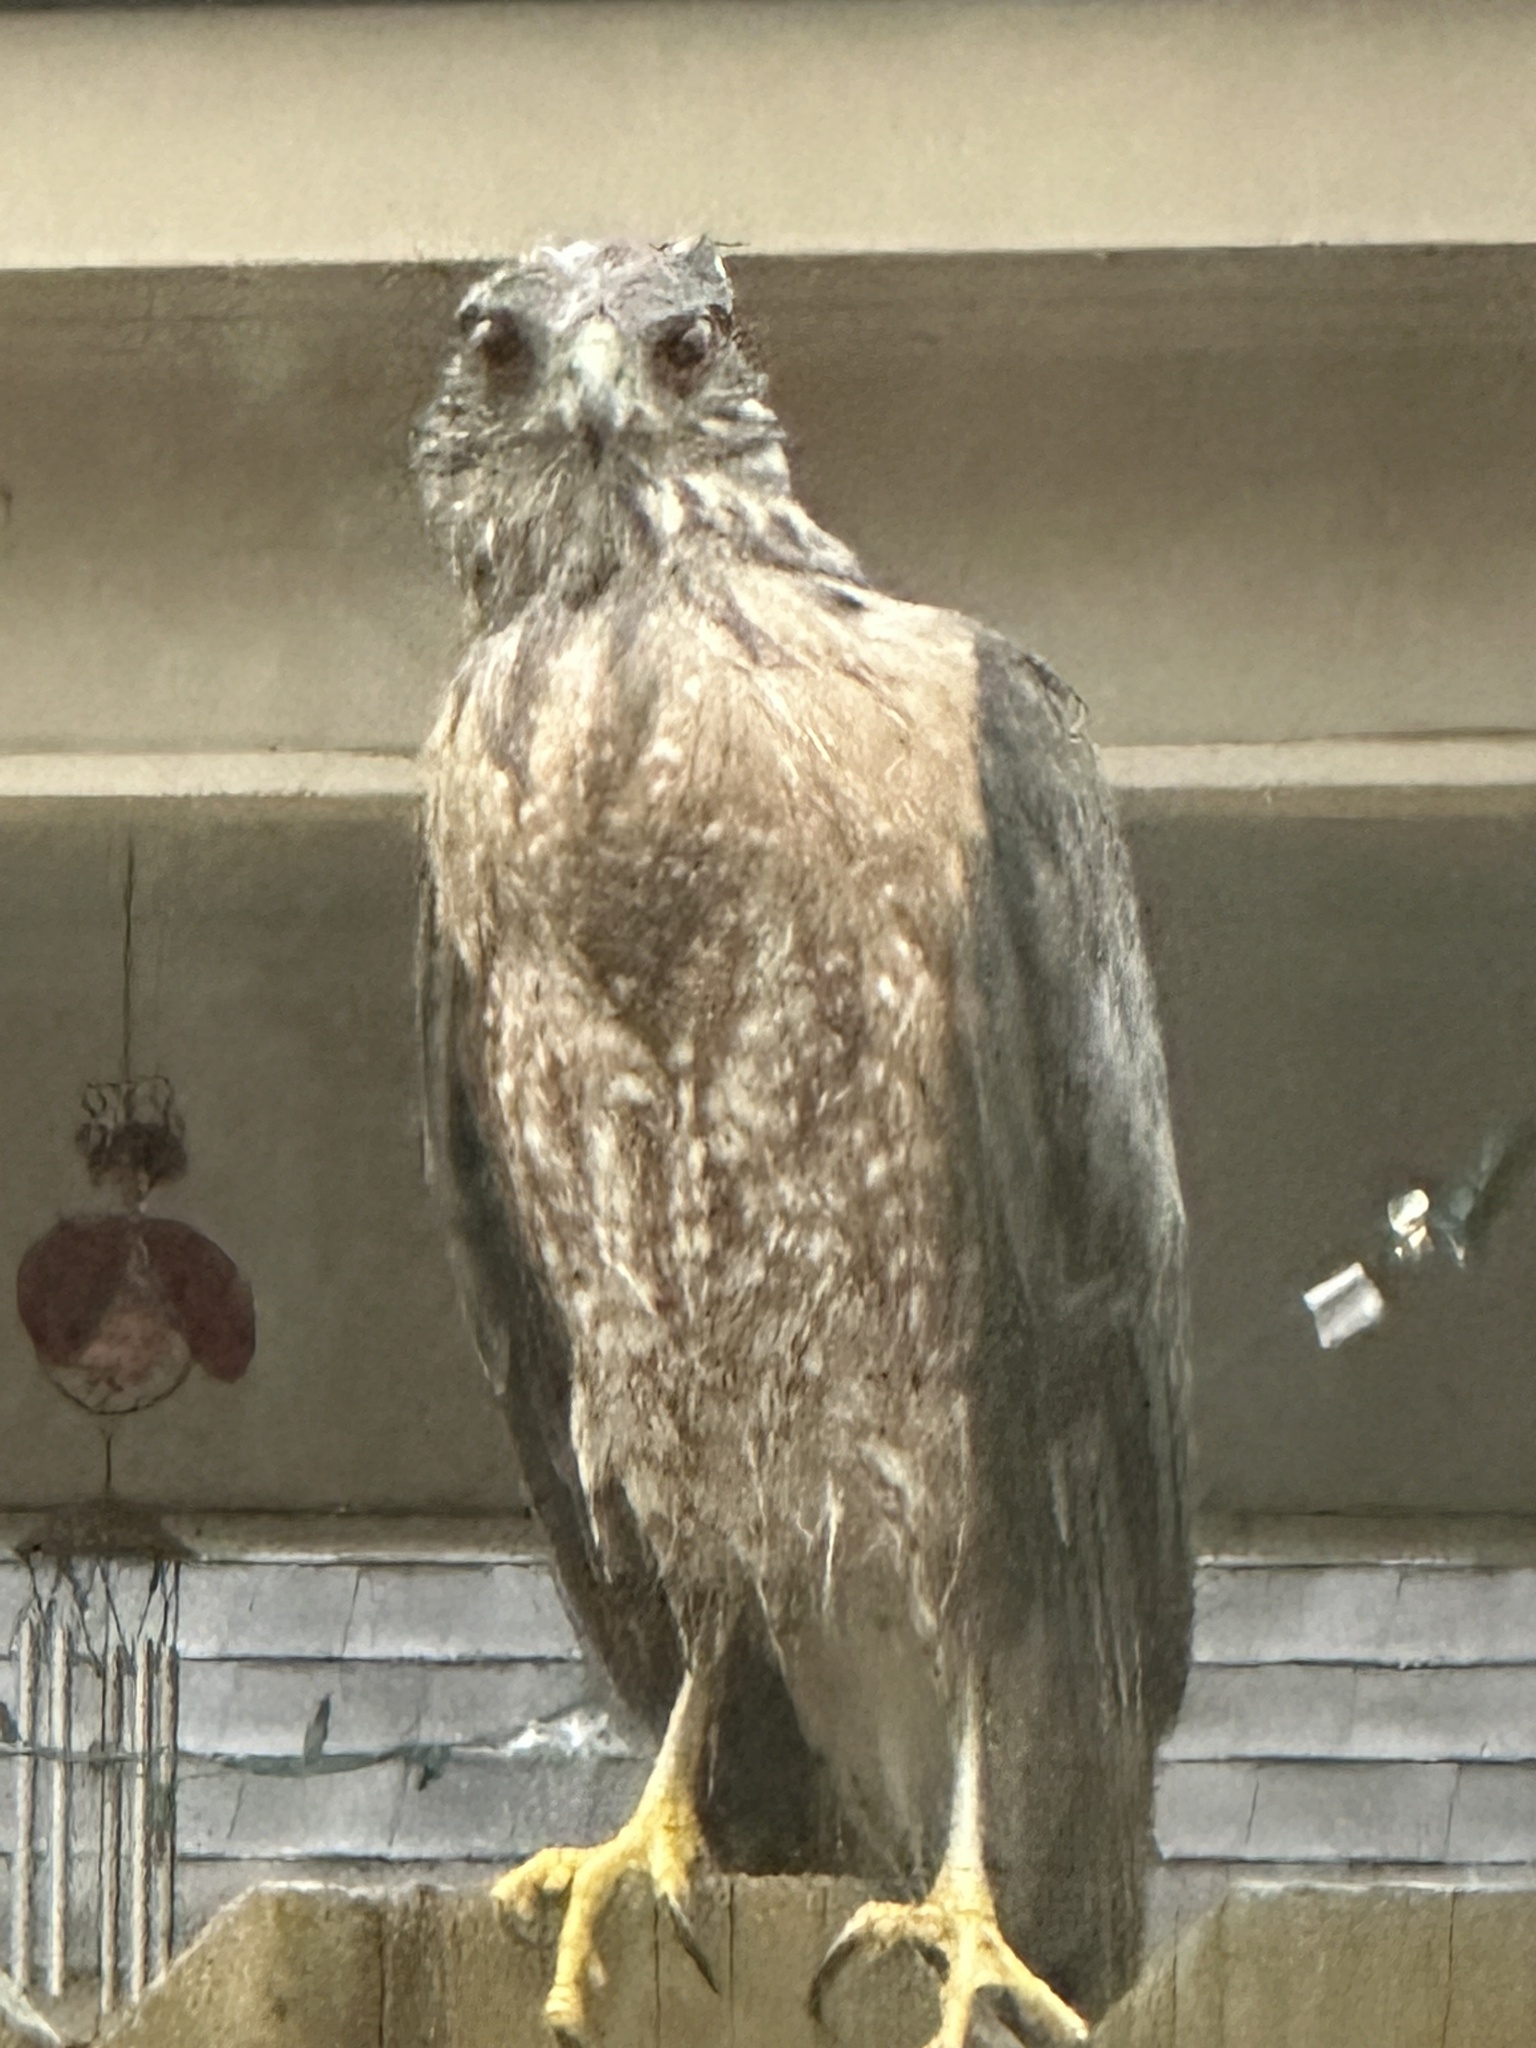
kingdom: Animalia
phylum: Chordata
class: Aves
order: Accipitriformes
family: Accipitridae
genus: Accipiter
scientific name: Accipiter cooperii
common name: Cooper's hawk
